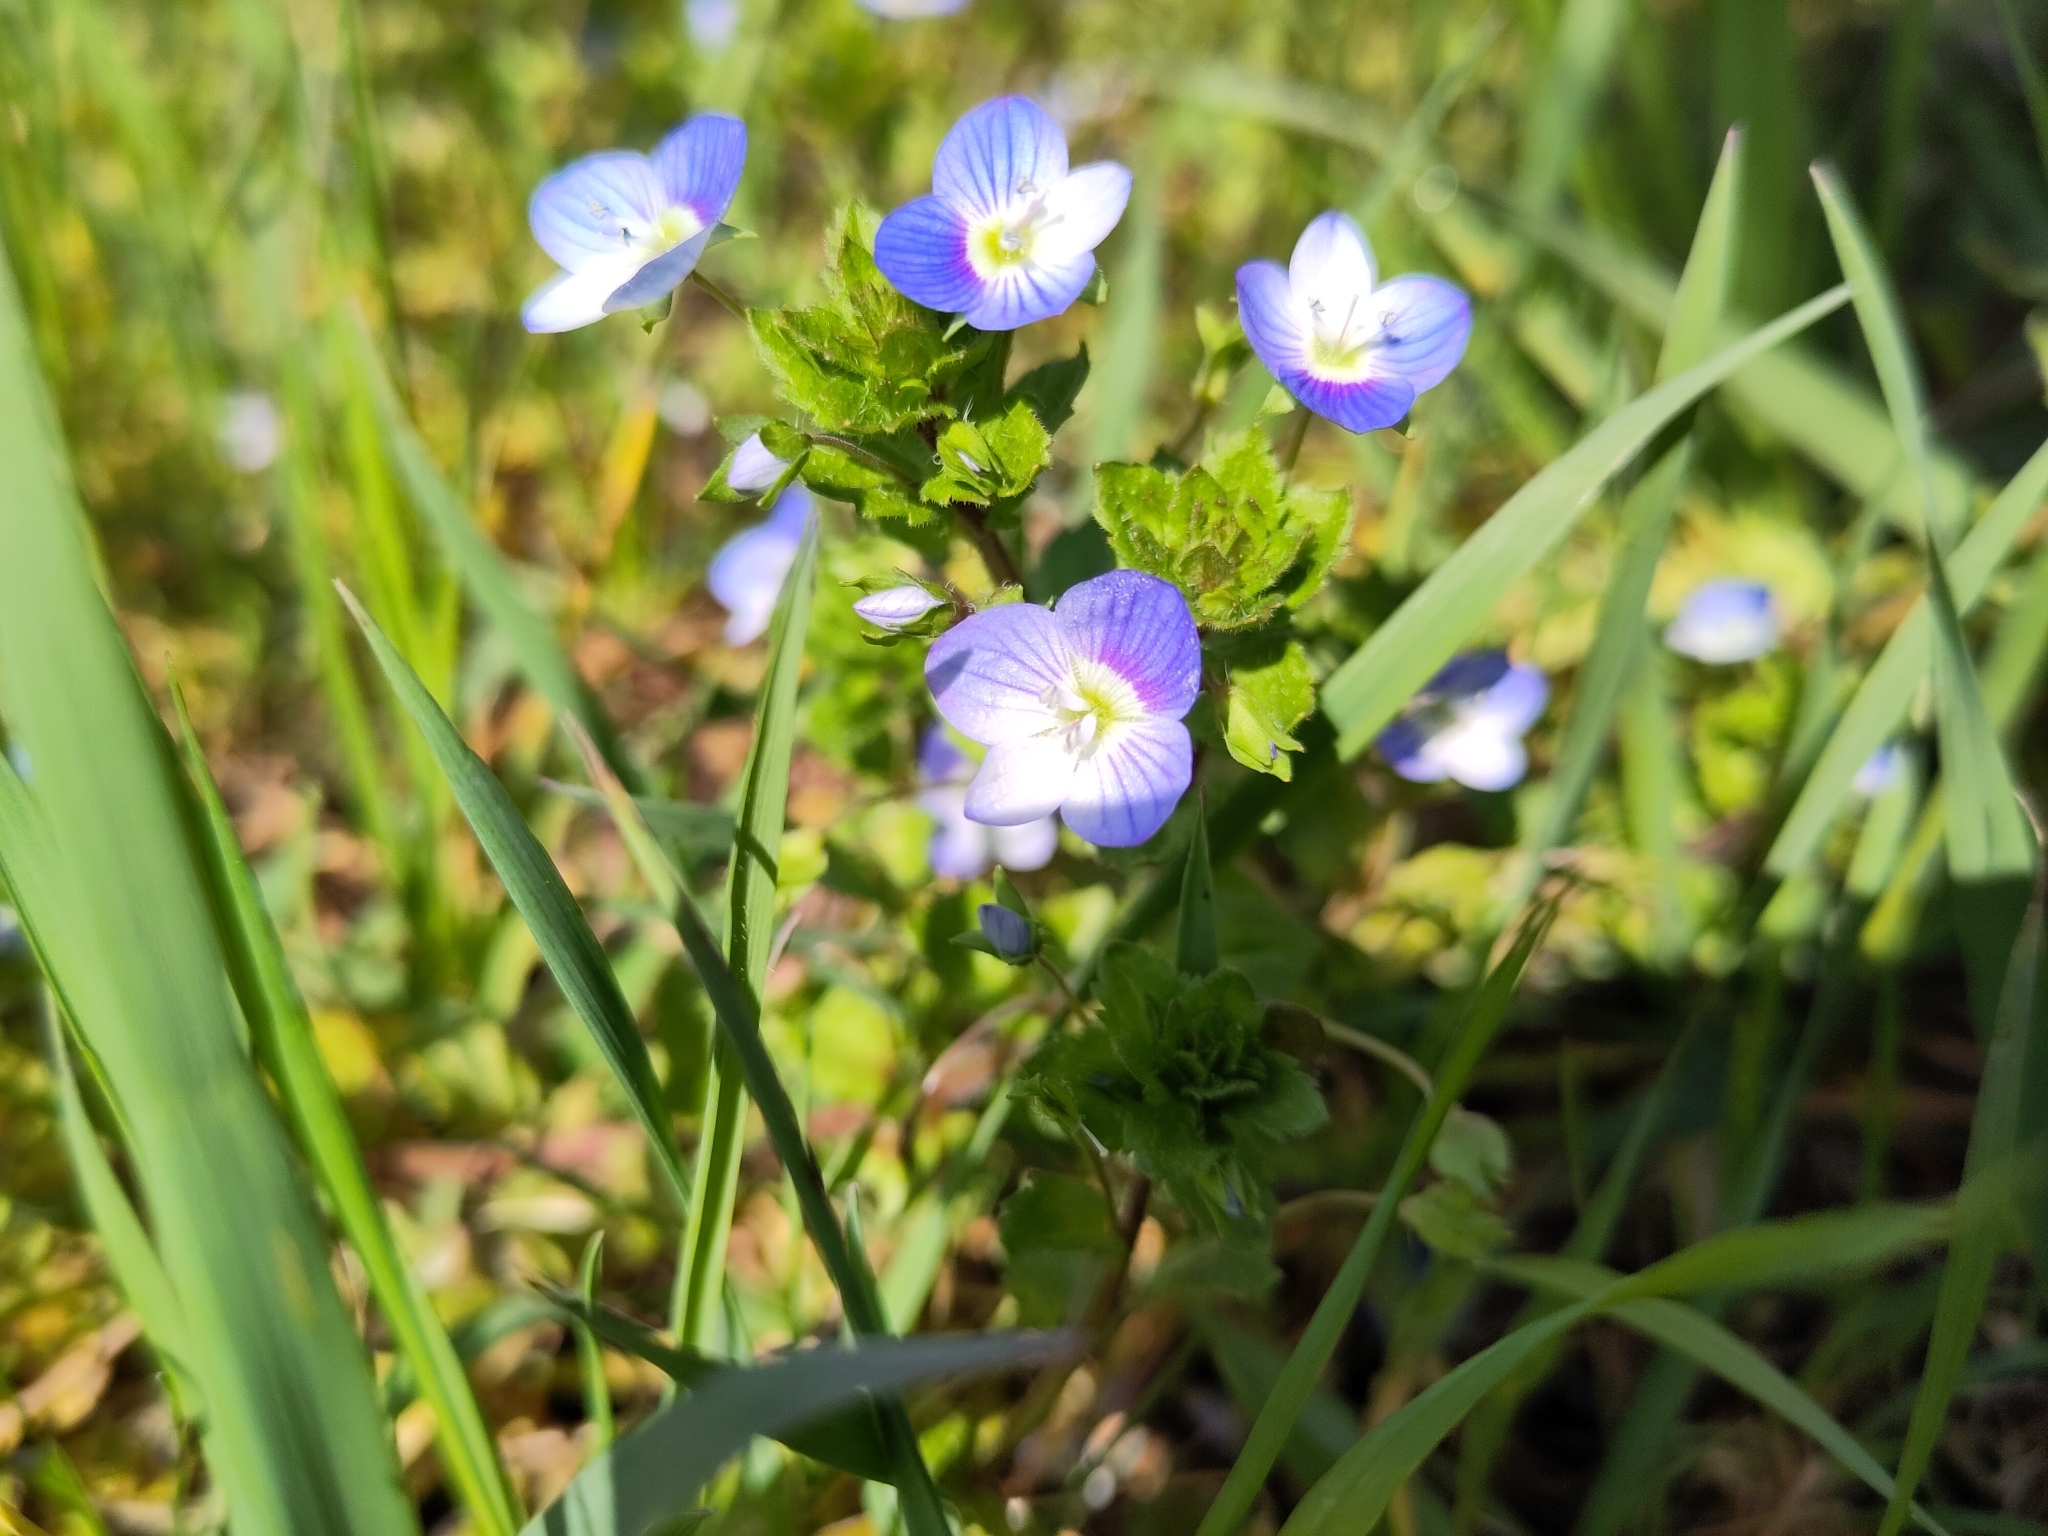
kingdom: Plantae
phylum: Tracheophyta
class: Magnoliopsida
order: Lamiales
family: Plantaginaceae
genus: Veronica
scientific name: Veronica persica
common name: Common field-speedwell
